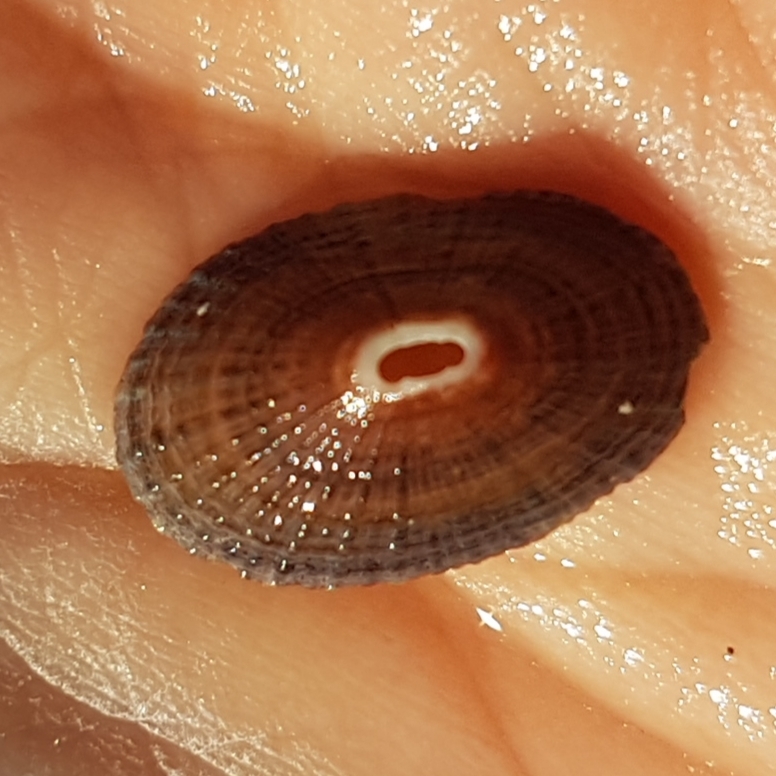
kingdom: Animalia
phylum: Mollusca
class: Gastropoda
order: Lepetellida
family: Fissurellidae
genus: Fissurella
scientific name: Fissurella nubecula
